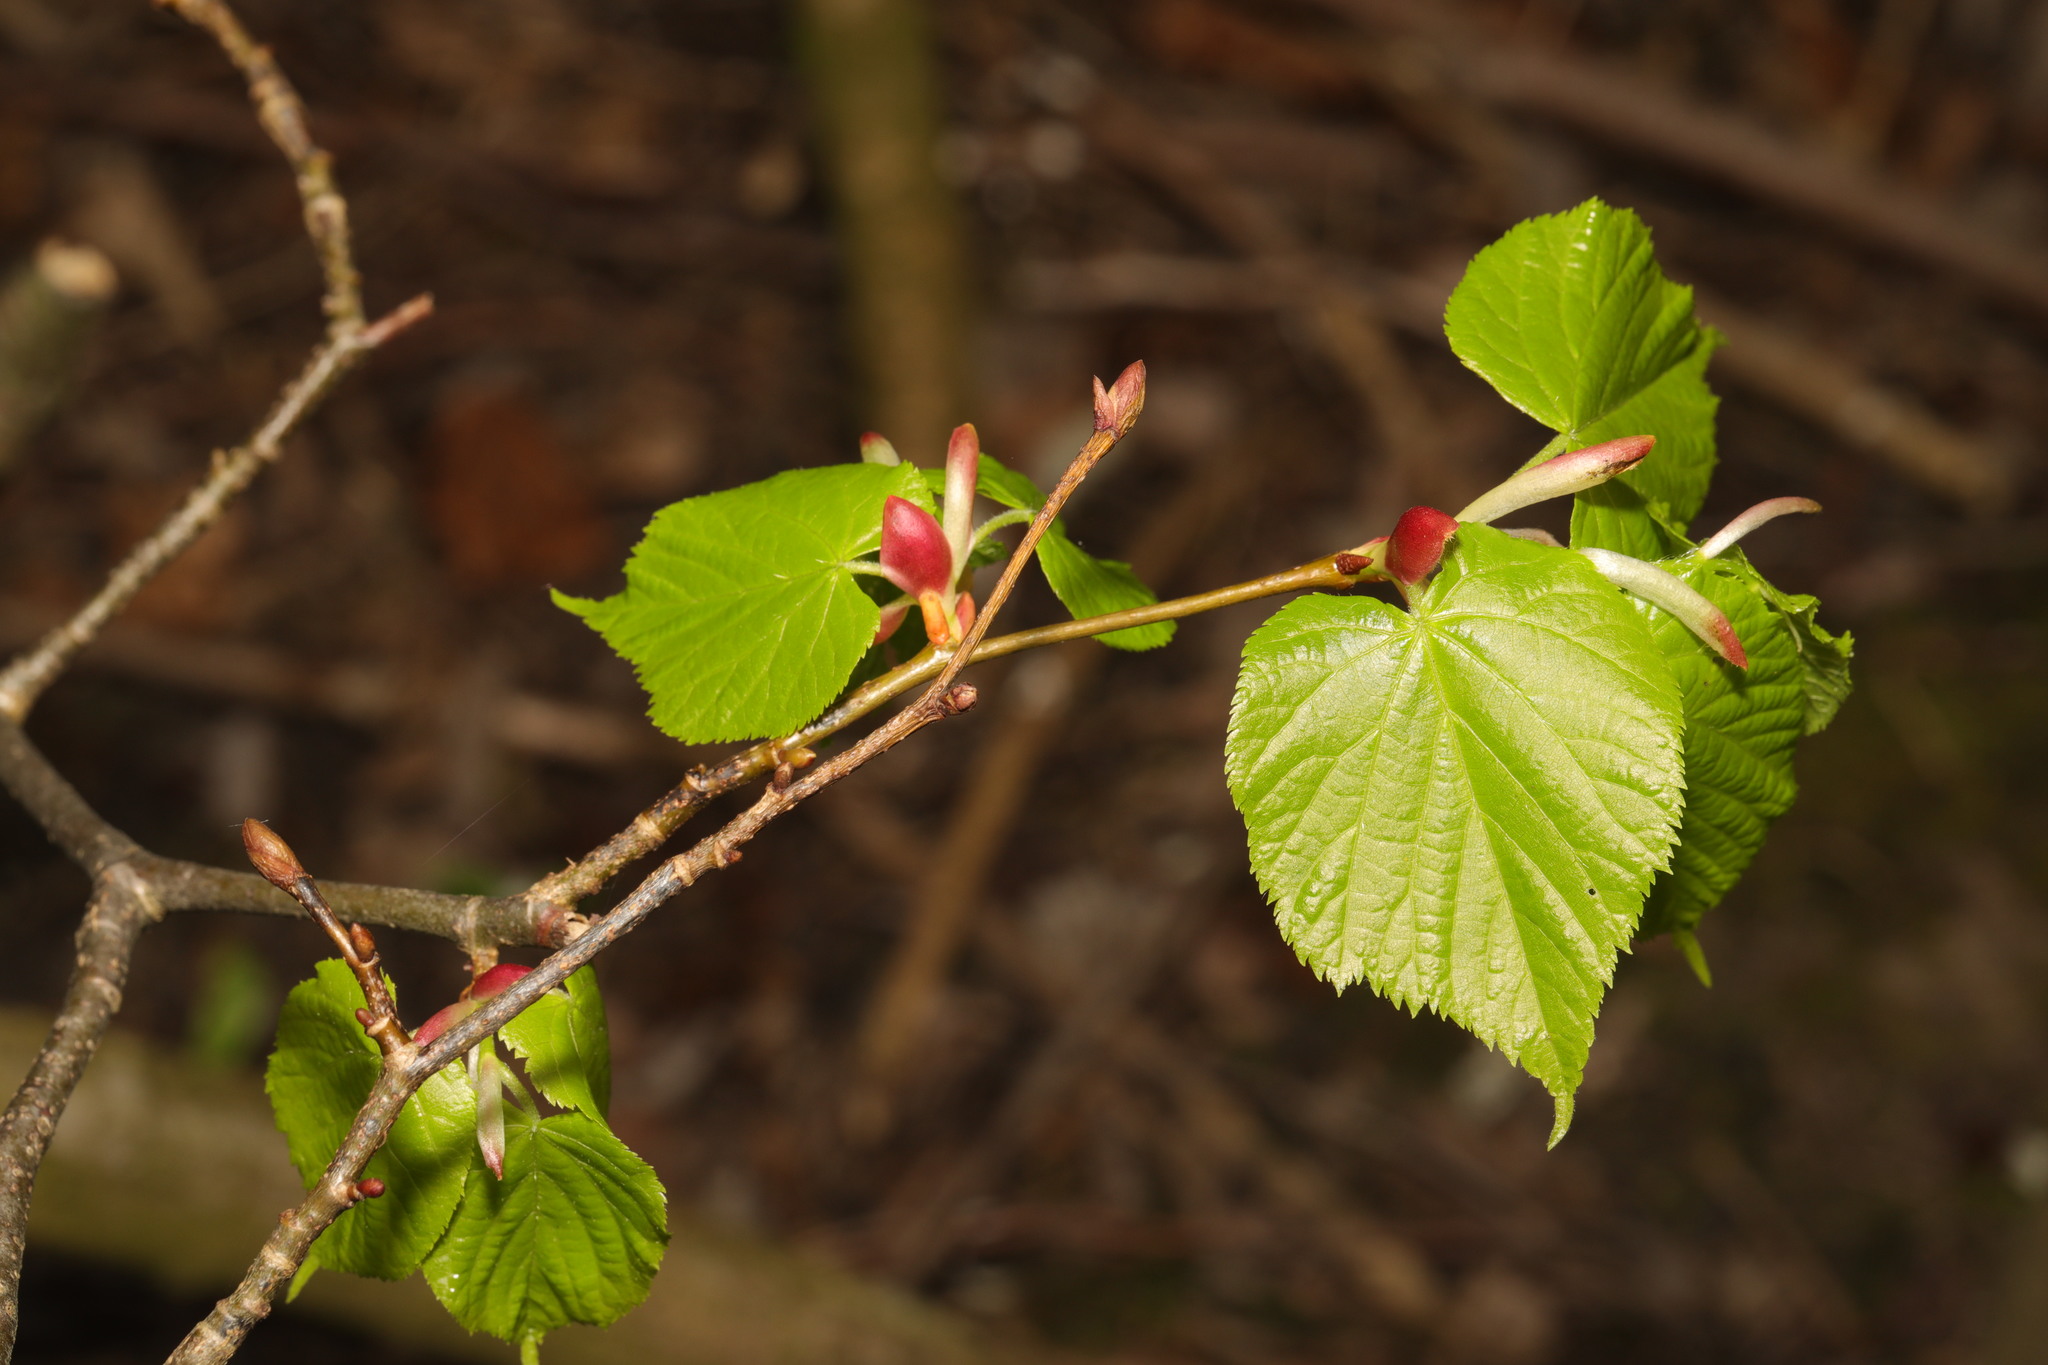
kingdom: Plantae
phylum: Tracheophyta
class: Magnoliopsida
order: Malvales
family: Malvaceae
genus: Tilia
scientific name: Tilia europaea
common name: European linden
